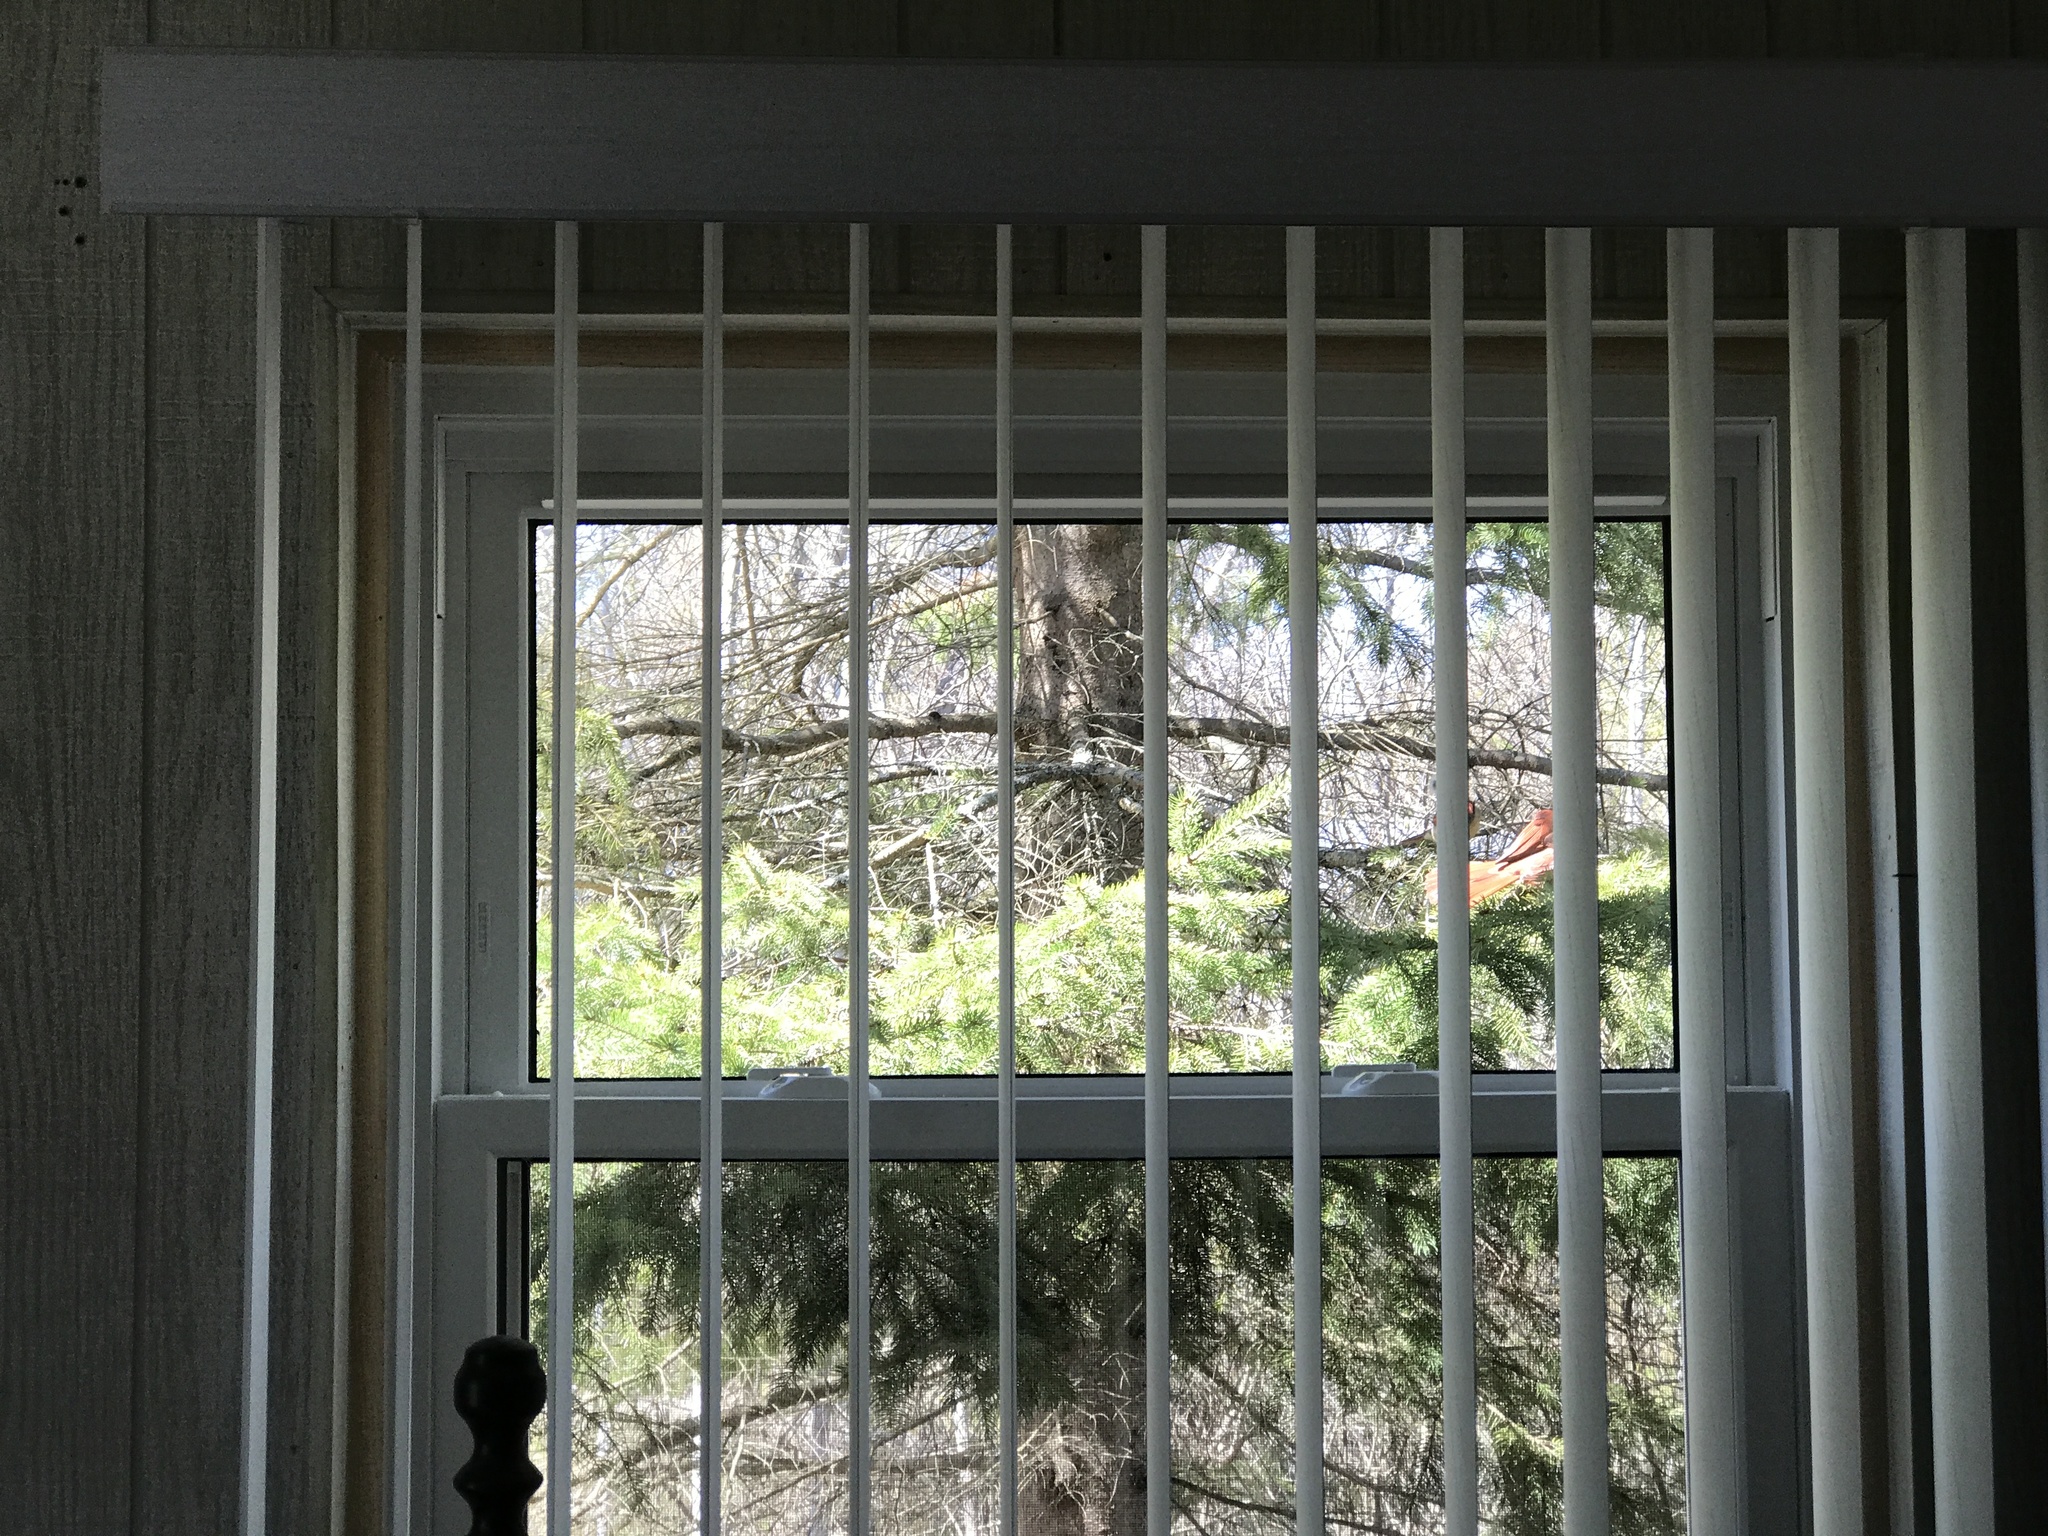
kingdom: Animalia
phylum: Chordata
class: Aves
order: Passeriformes
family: Cardinalidae
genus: Cardinalis
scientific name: Cardinalis cardinalis
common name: Northern cardinal
